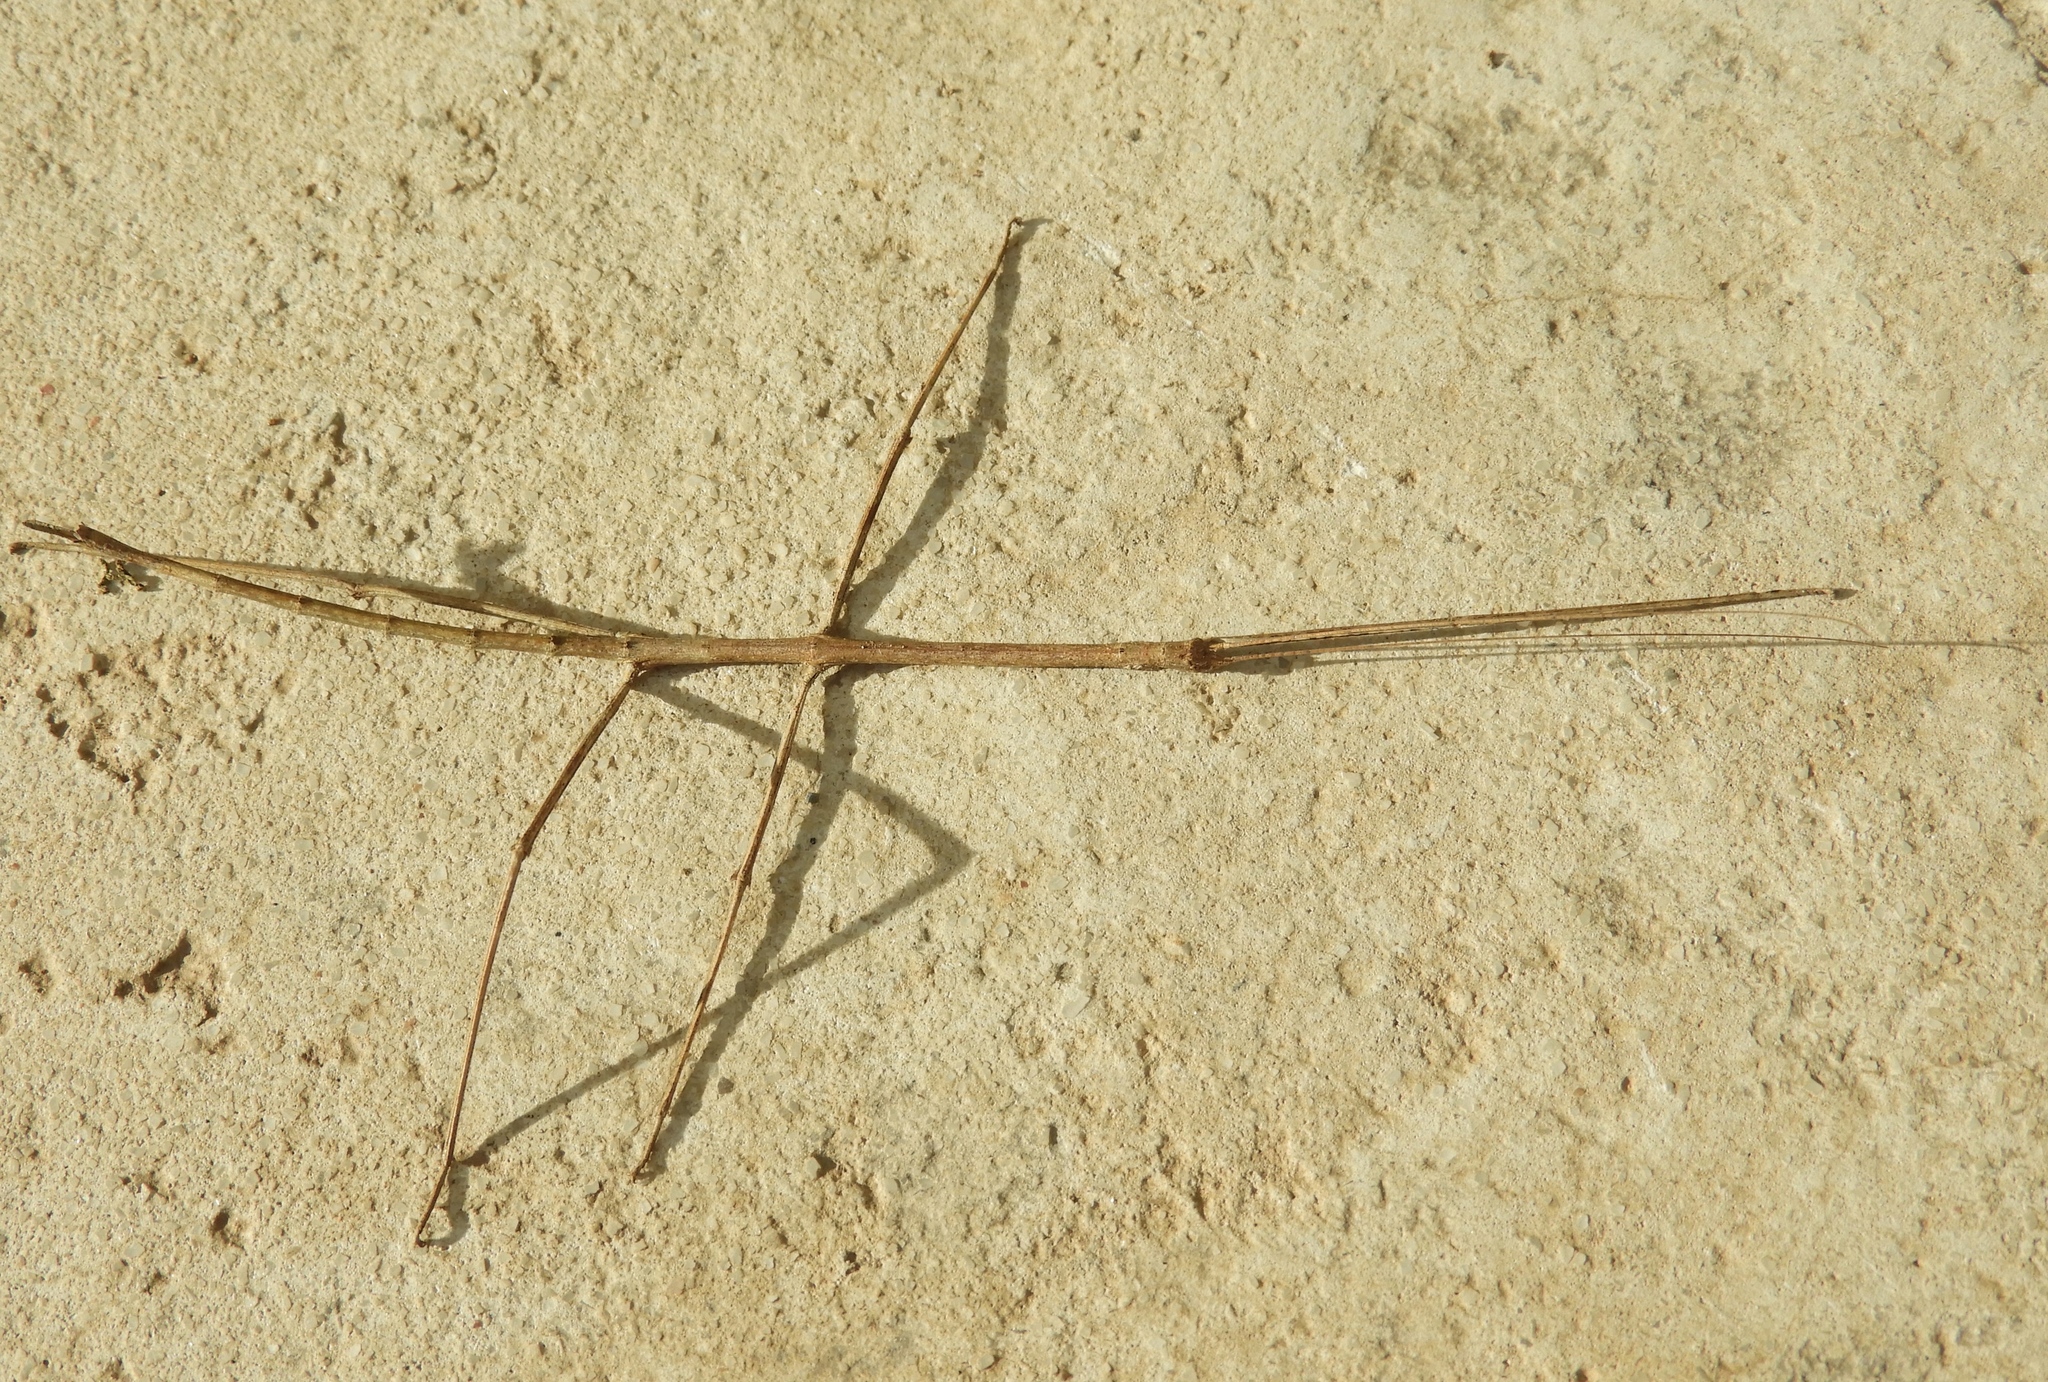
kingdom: Animalia
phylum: Arthropoda
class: Insecta
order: Phasmida
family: Diapheromeridae
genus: Phanocles
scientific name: Phanocles
